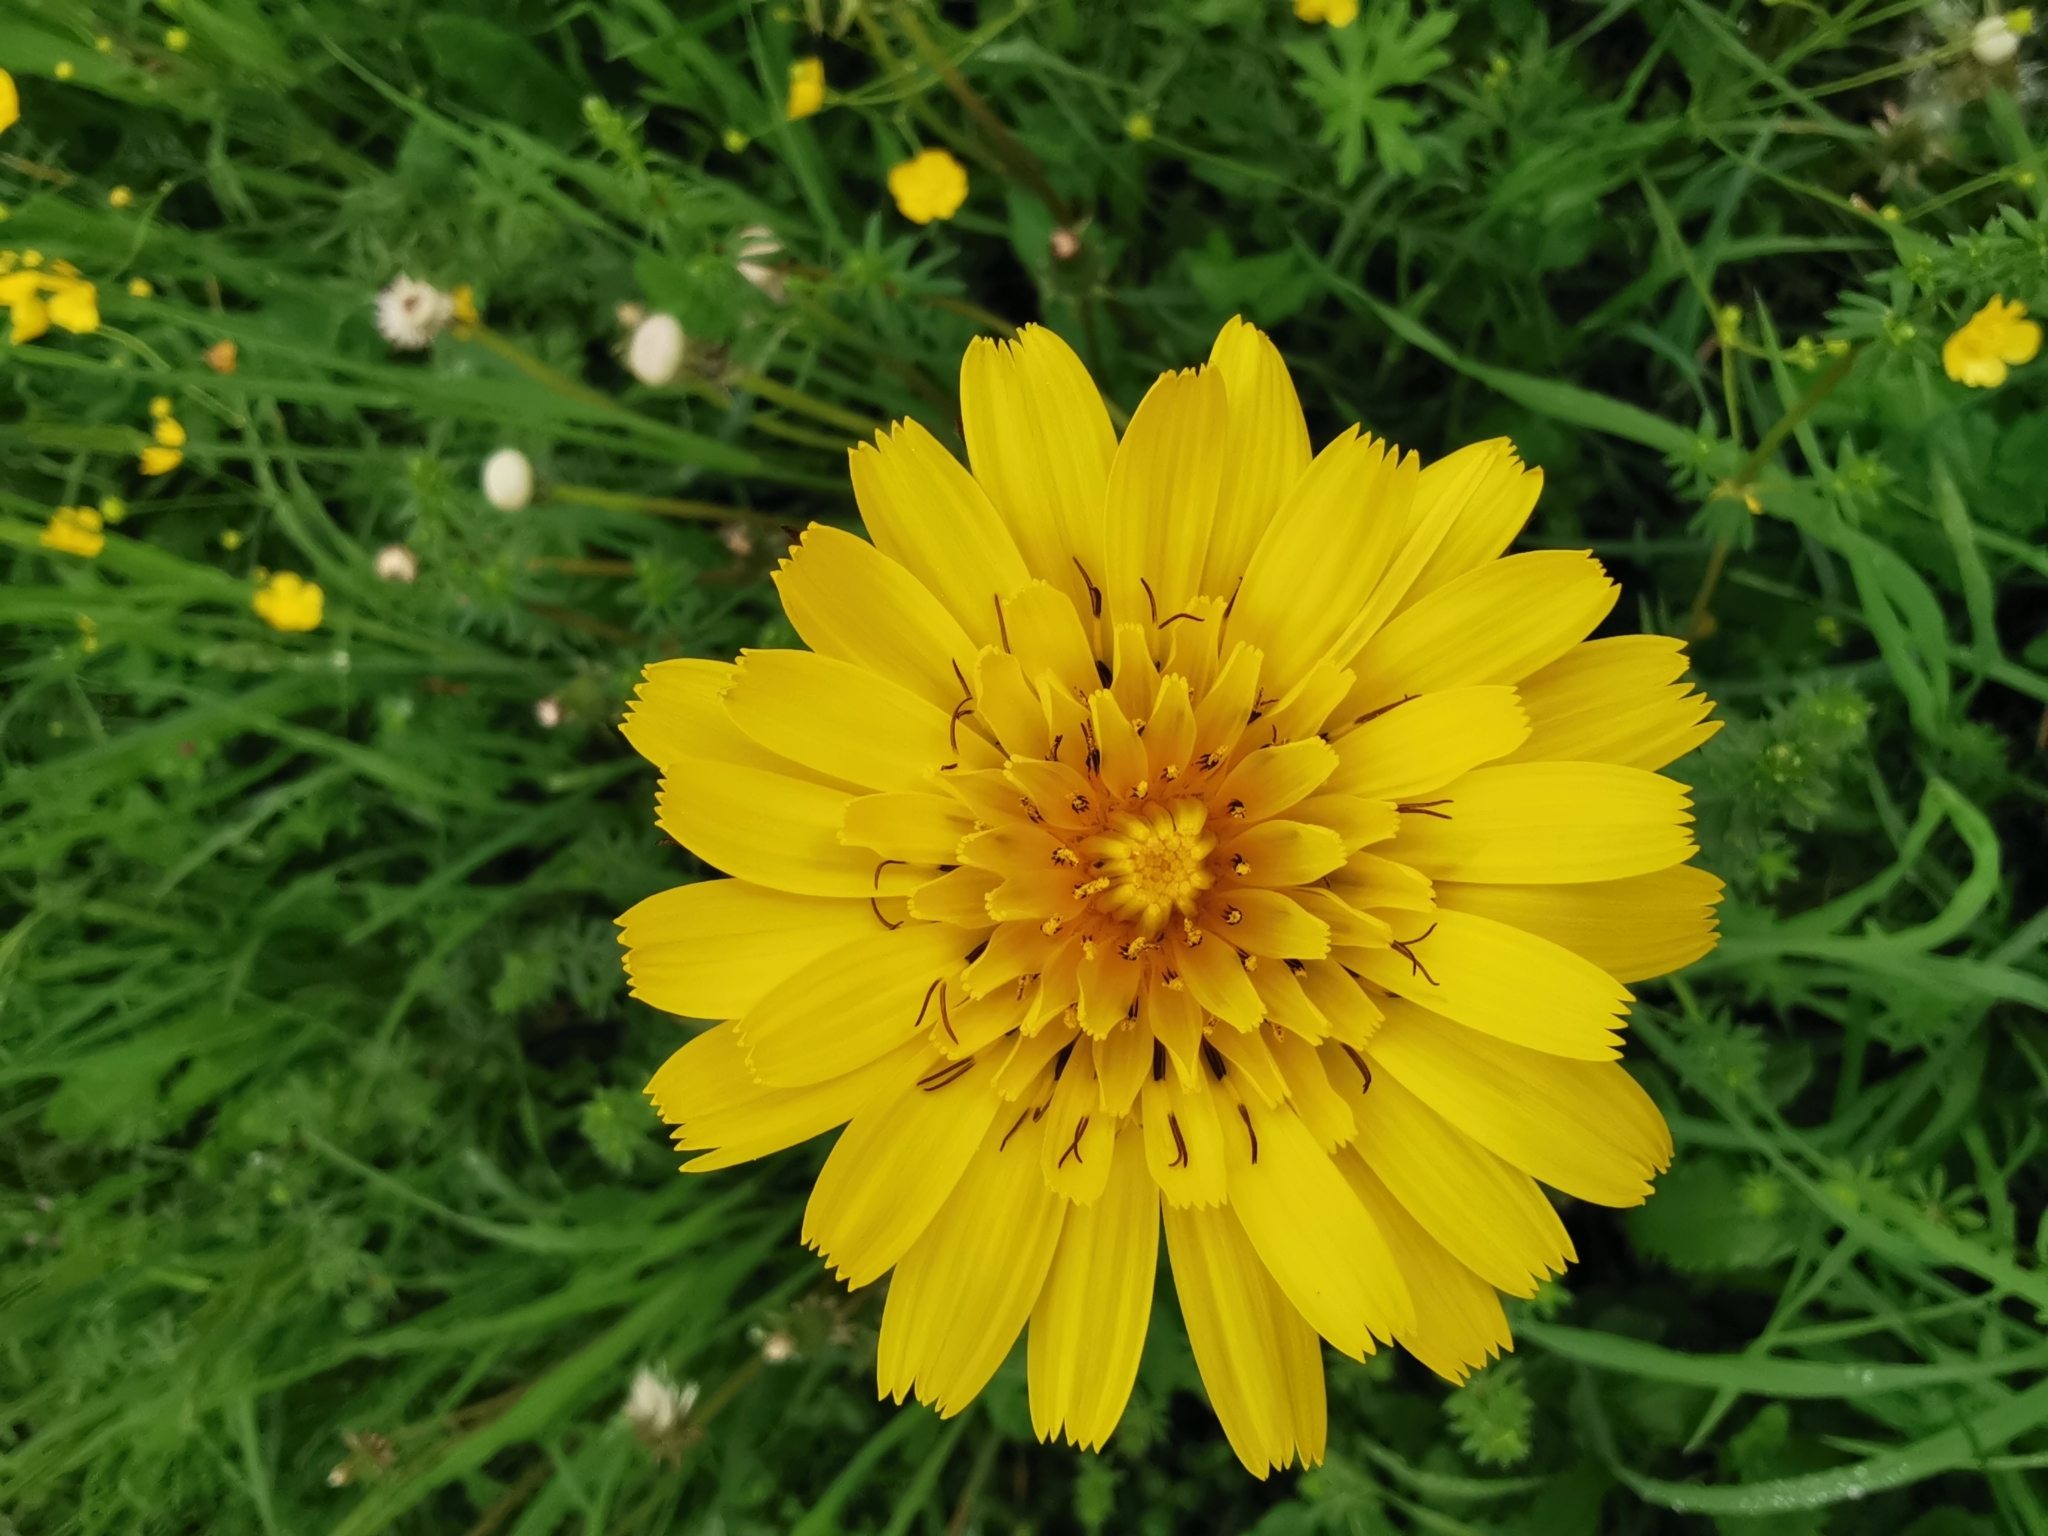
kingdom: Plantae
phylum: Tracheophyta
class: Magnoliopsida
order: Asterales
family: Asteraceae
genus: Tragopogon
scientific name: Tragopogon orientalis
